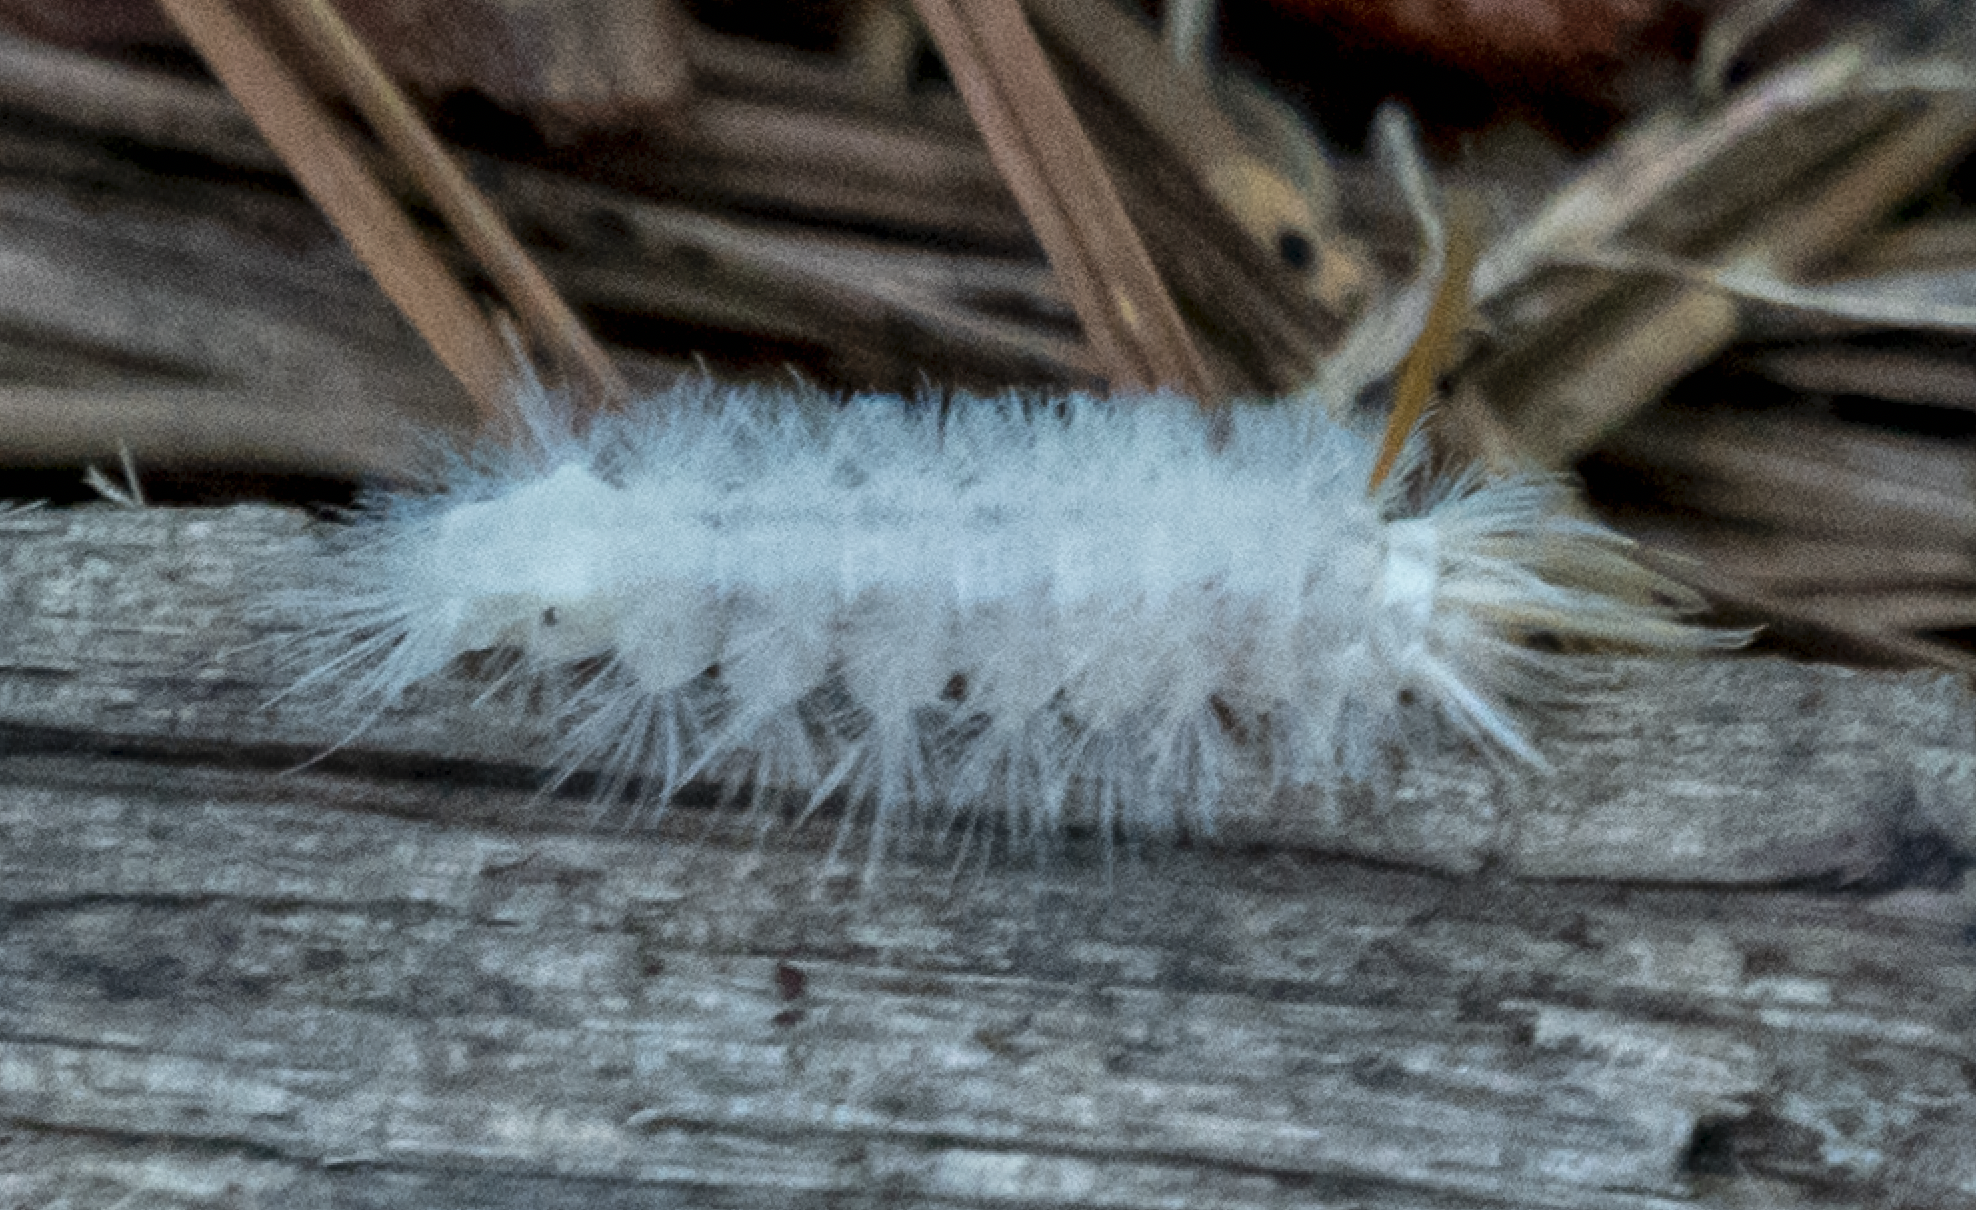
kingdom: Animalia
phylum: Arthropoda
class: Insecta
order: Lepidoptera
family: Erebidae
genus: Halysidota
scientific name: Halysidota harrisii
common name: Sycamore tussock moth
